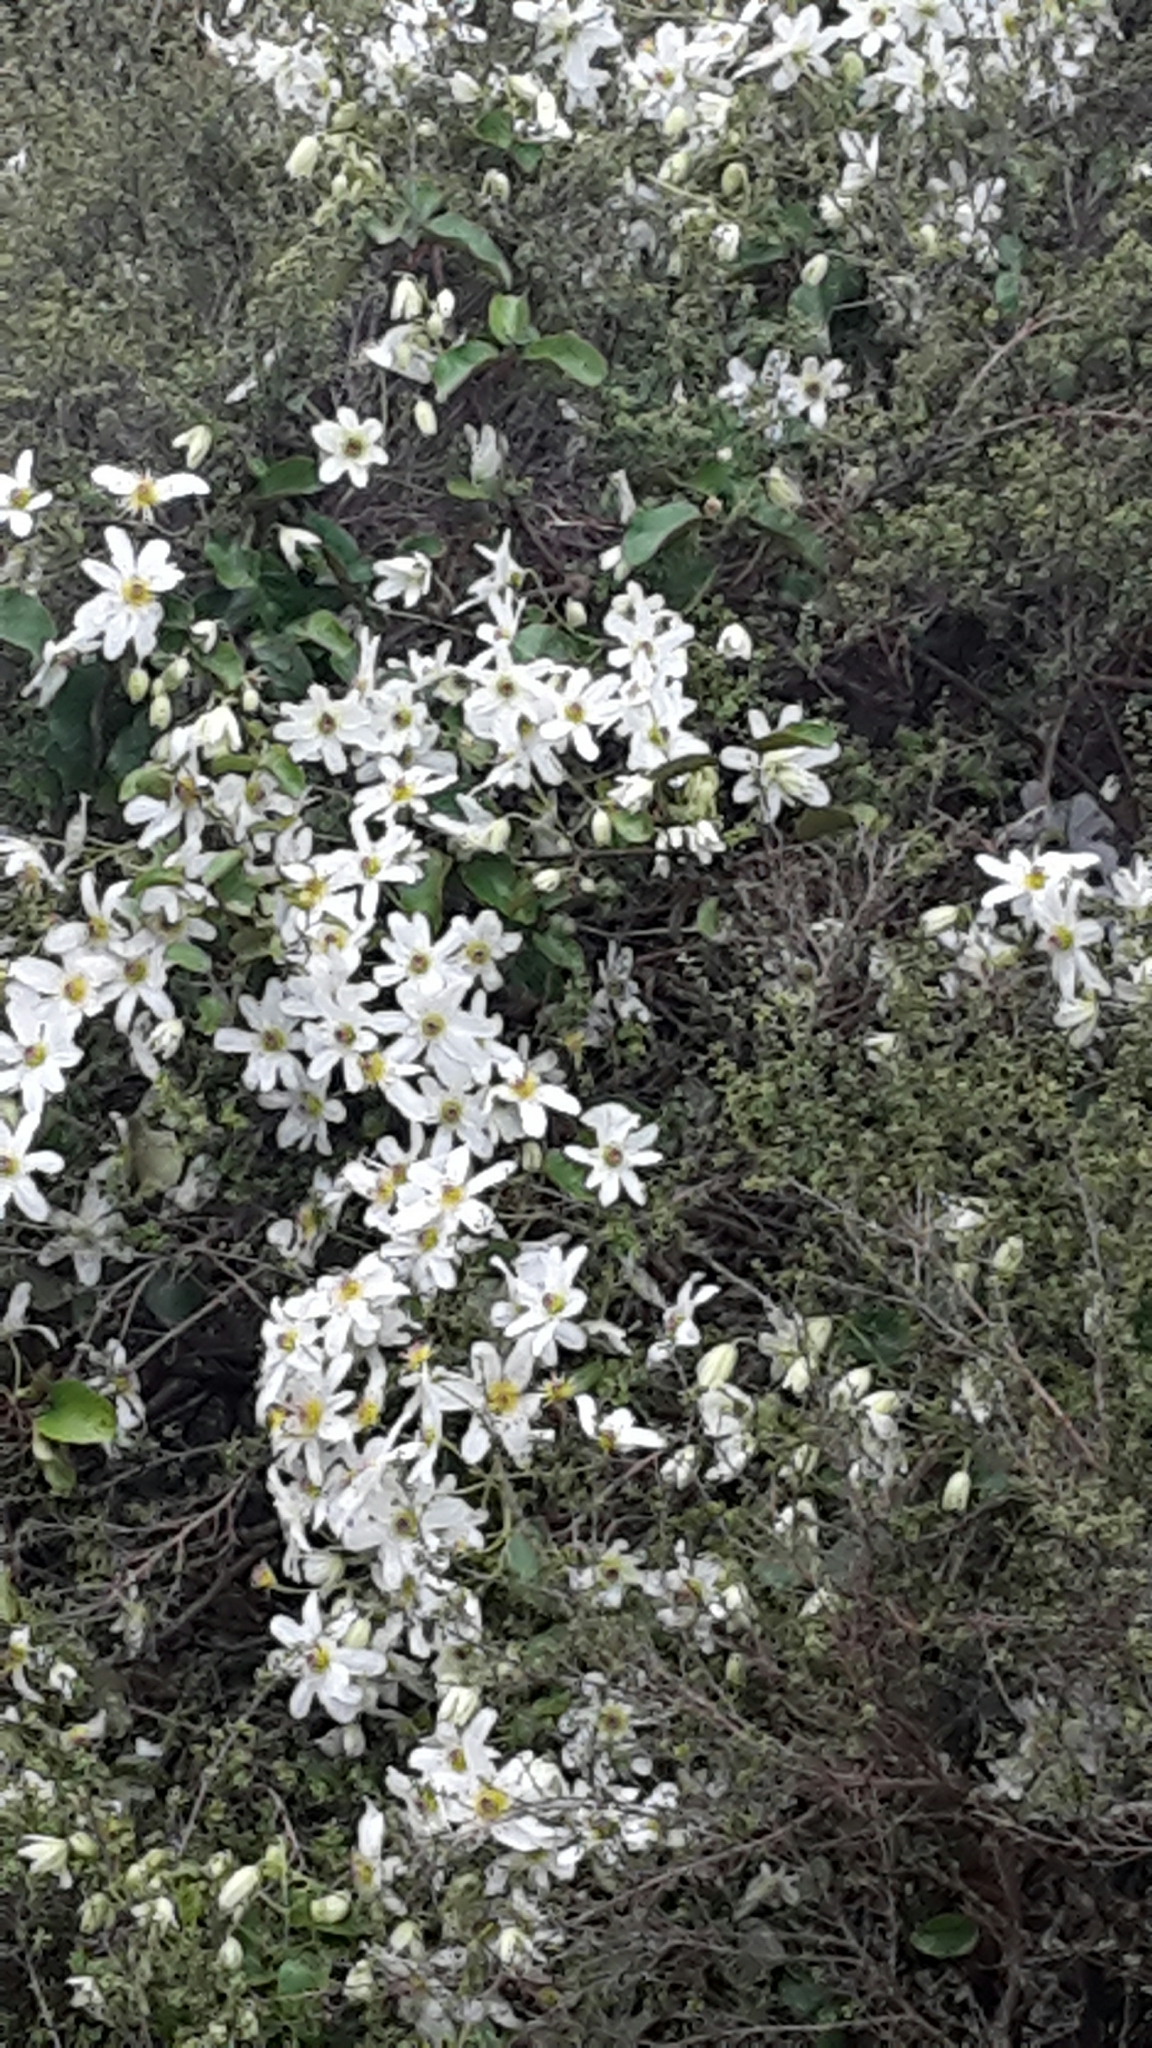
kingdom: Plantae
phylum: Tracheophyta
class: Magnoliopsida
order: Ranunculales
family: Ranunculaceae
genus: Clematis
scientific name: Clematis paniculata
